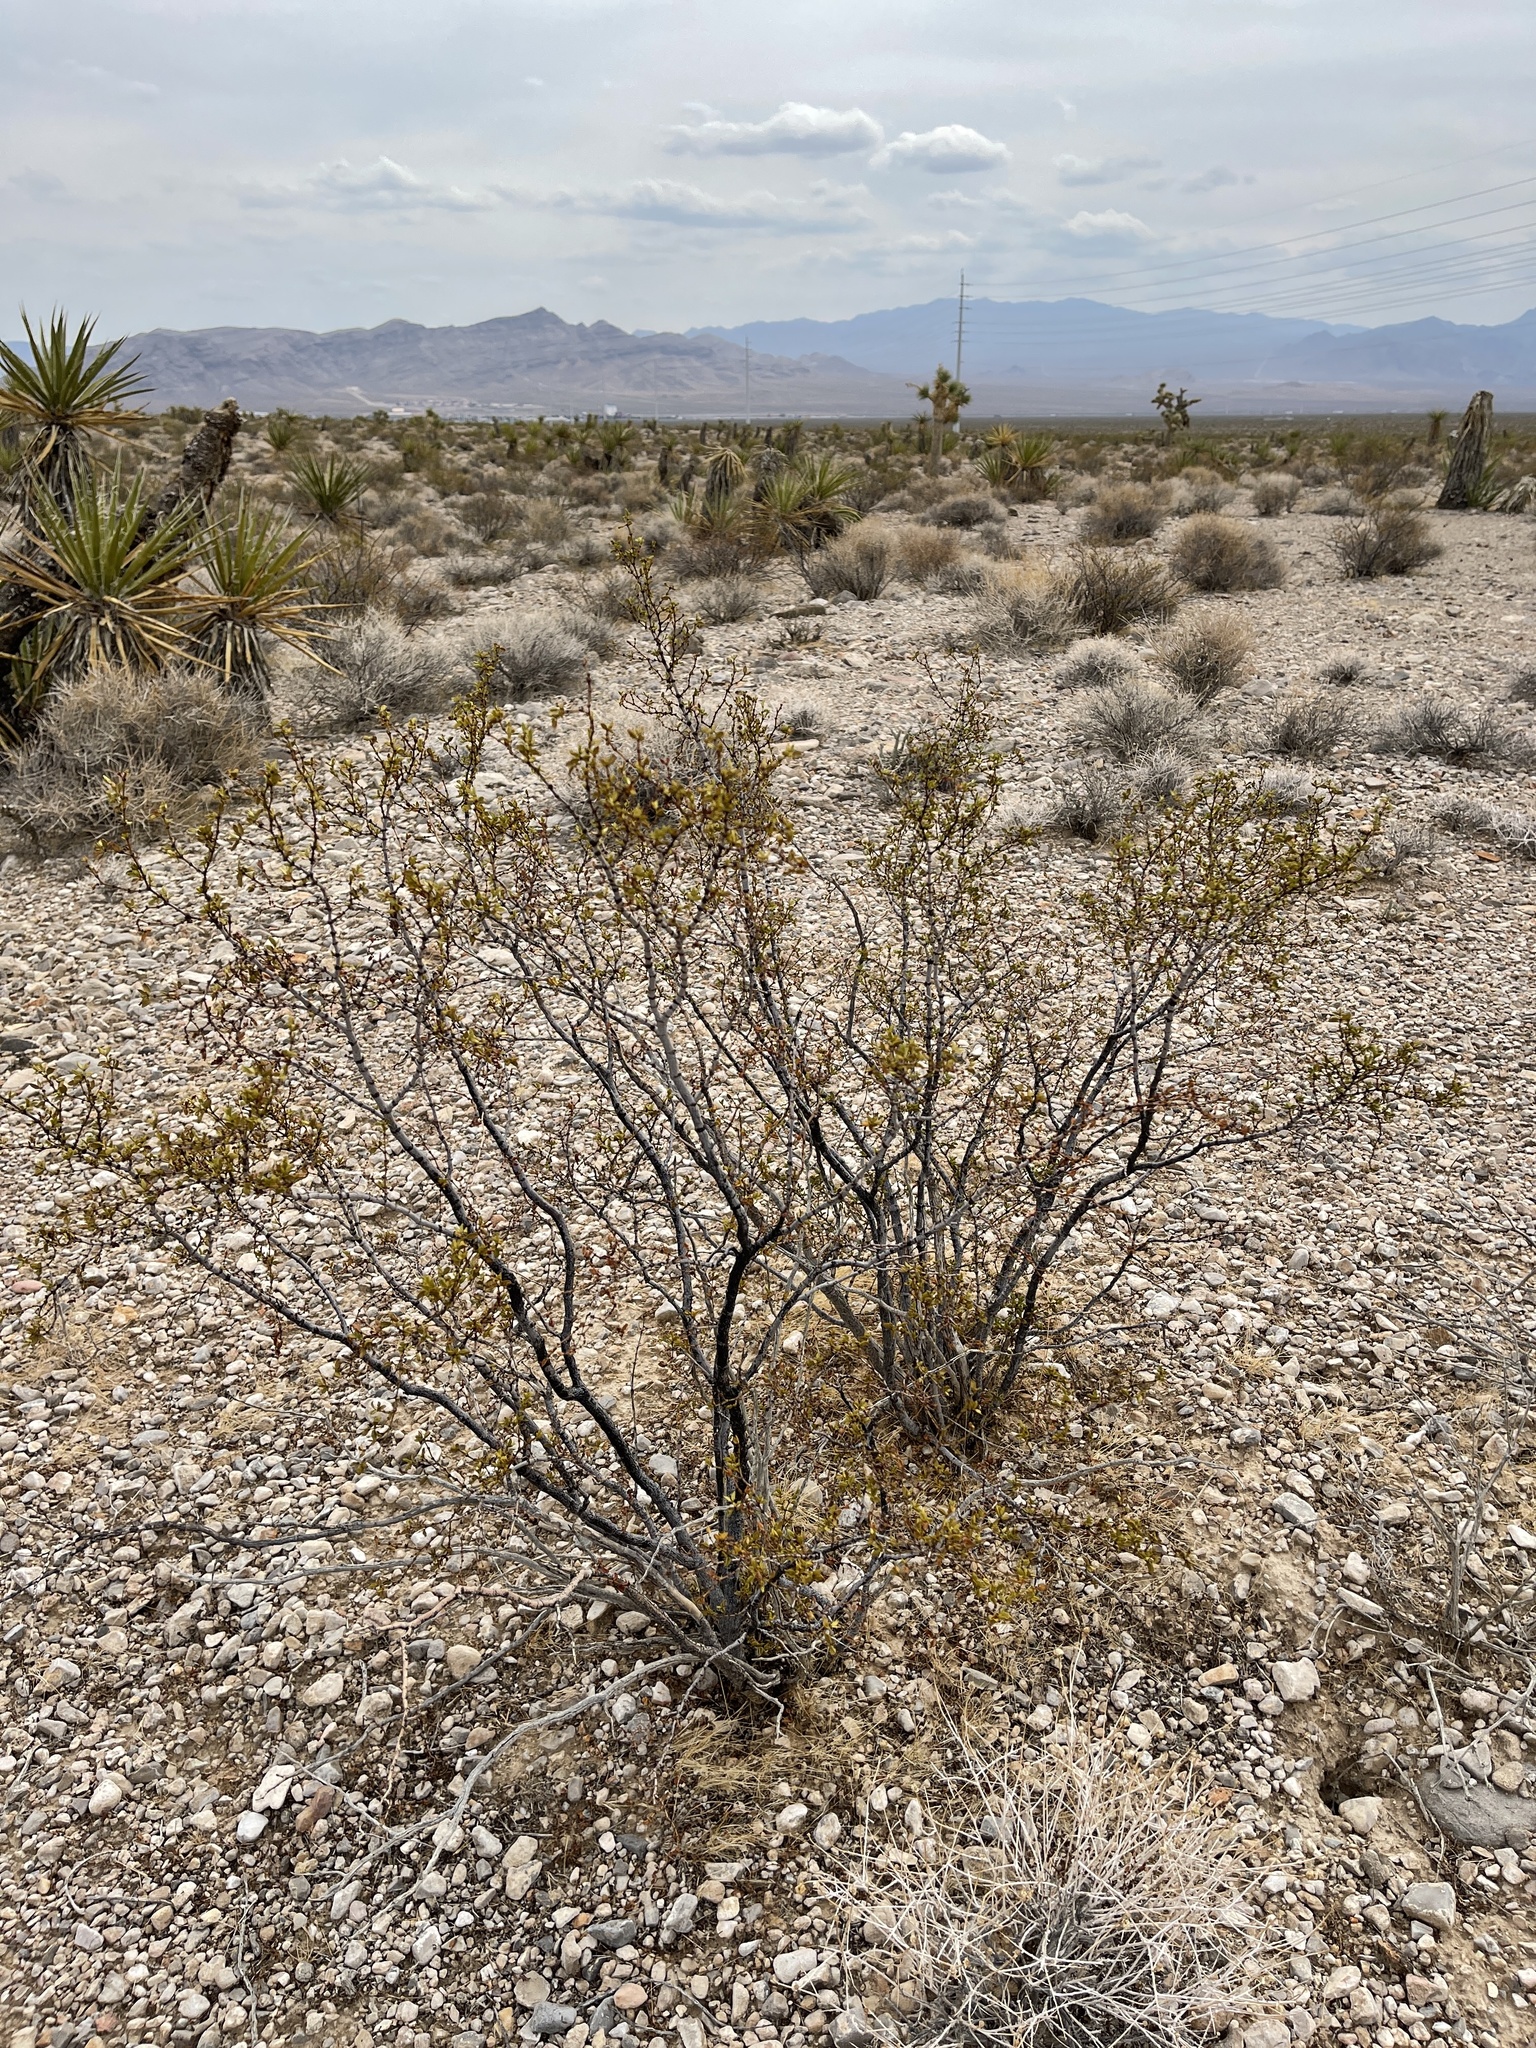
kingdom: Plantae
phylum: Tracheophyta
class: Magnoliopsida
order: Zygophyllales
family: Zygophyllaceae
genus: Larrea
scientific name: Larrea tridentata
